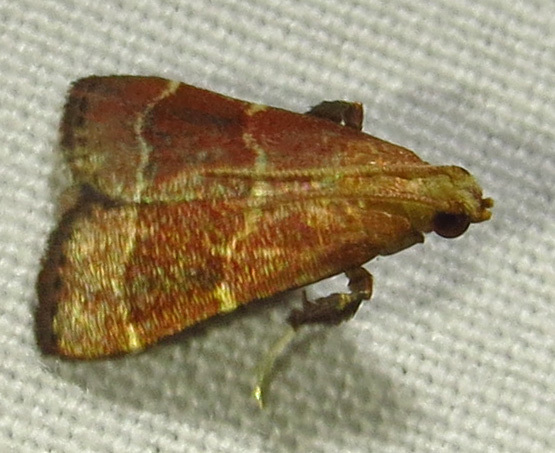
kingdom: Animalia
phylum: Arthropoda
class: Insecta
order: Lepidoptera
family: Pyralidae
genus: Arta
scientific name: Arta statalis
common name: Posturing arta moth
